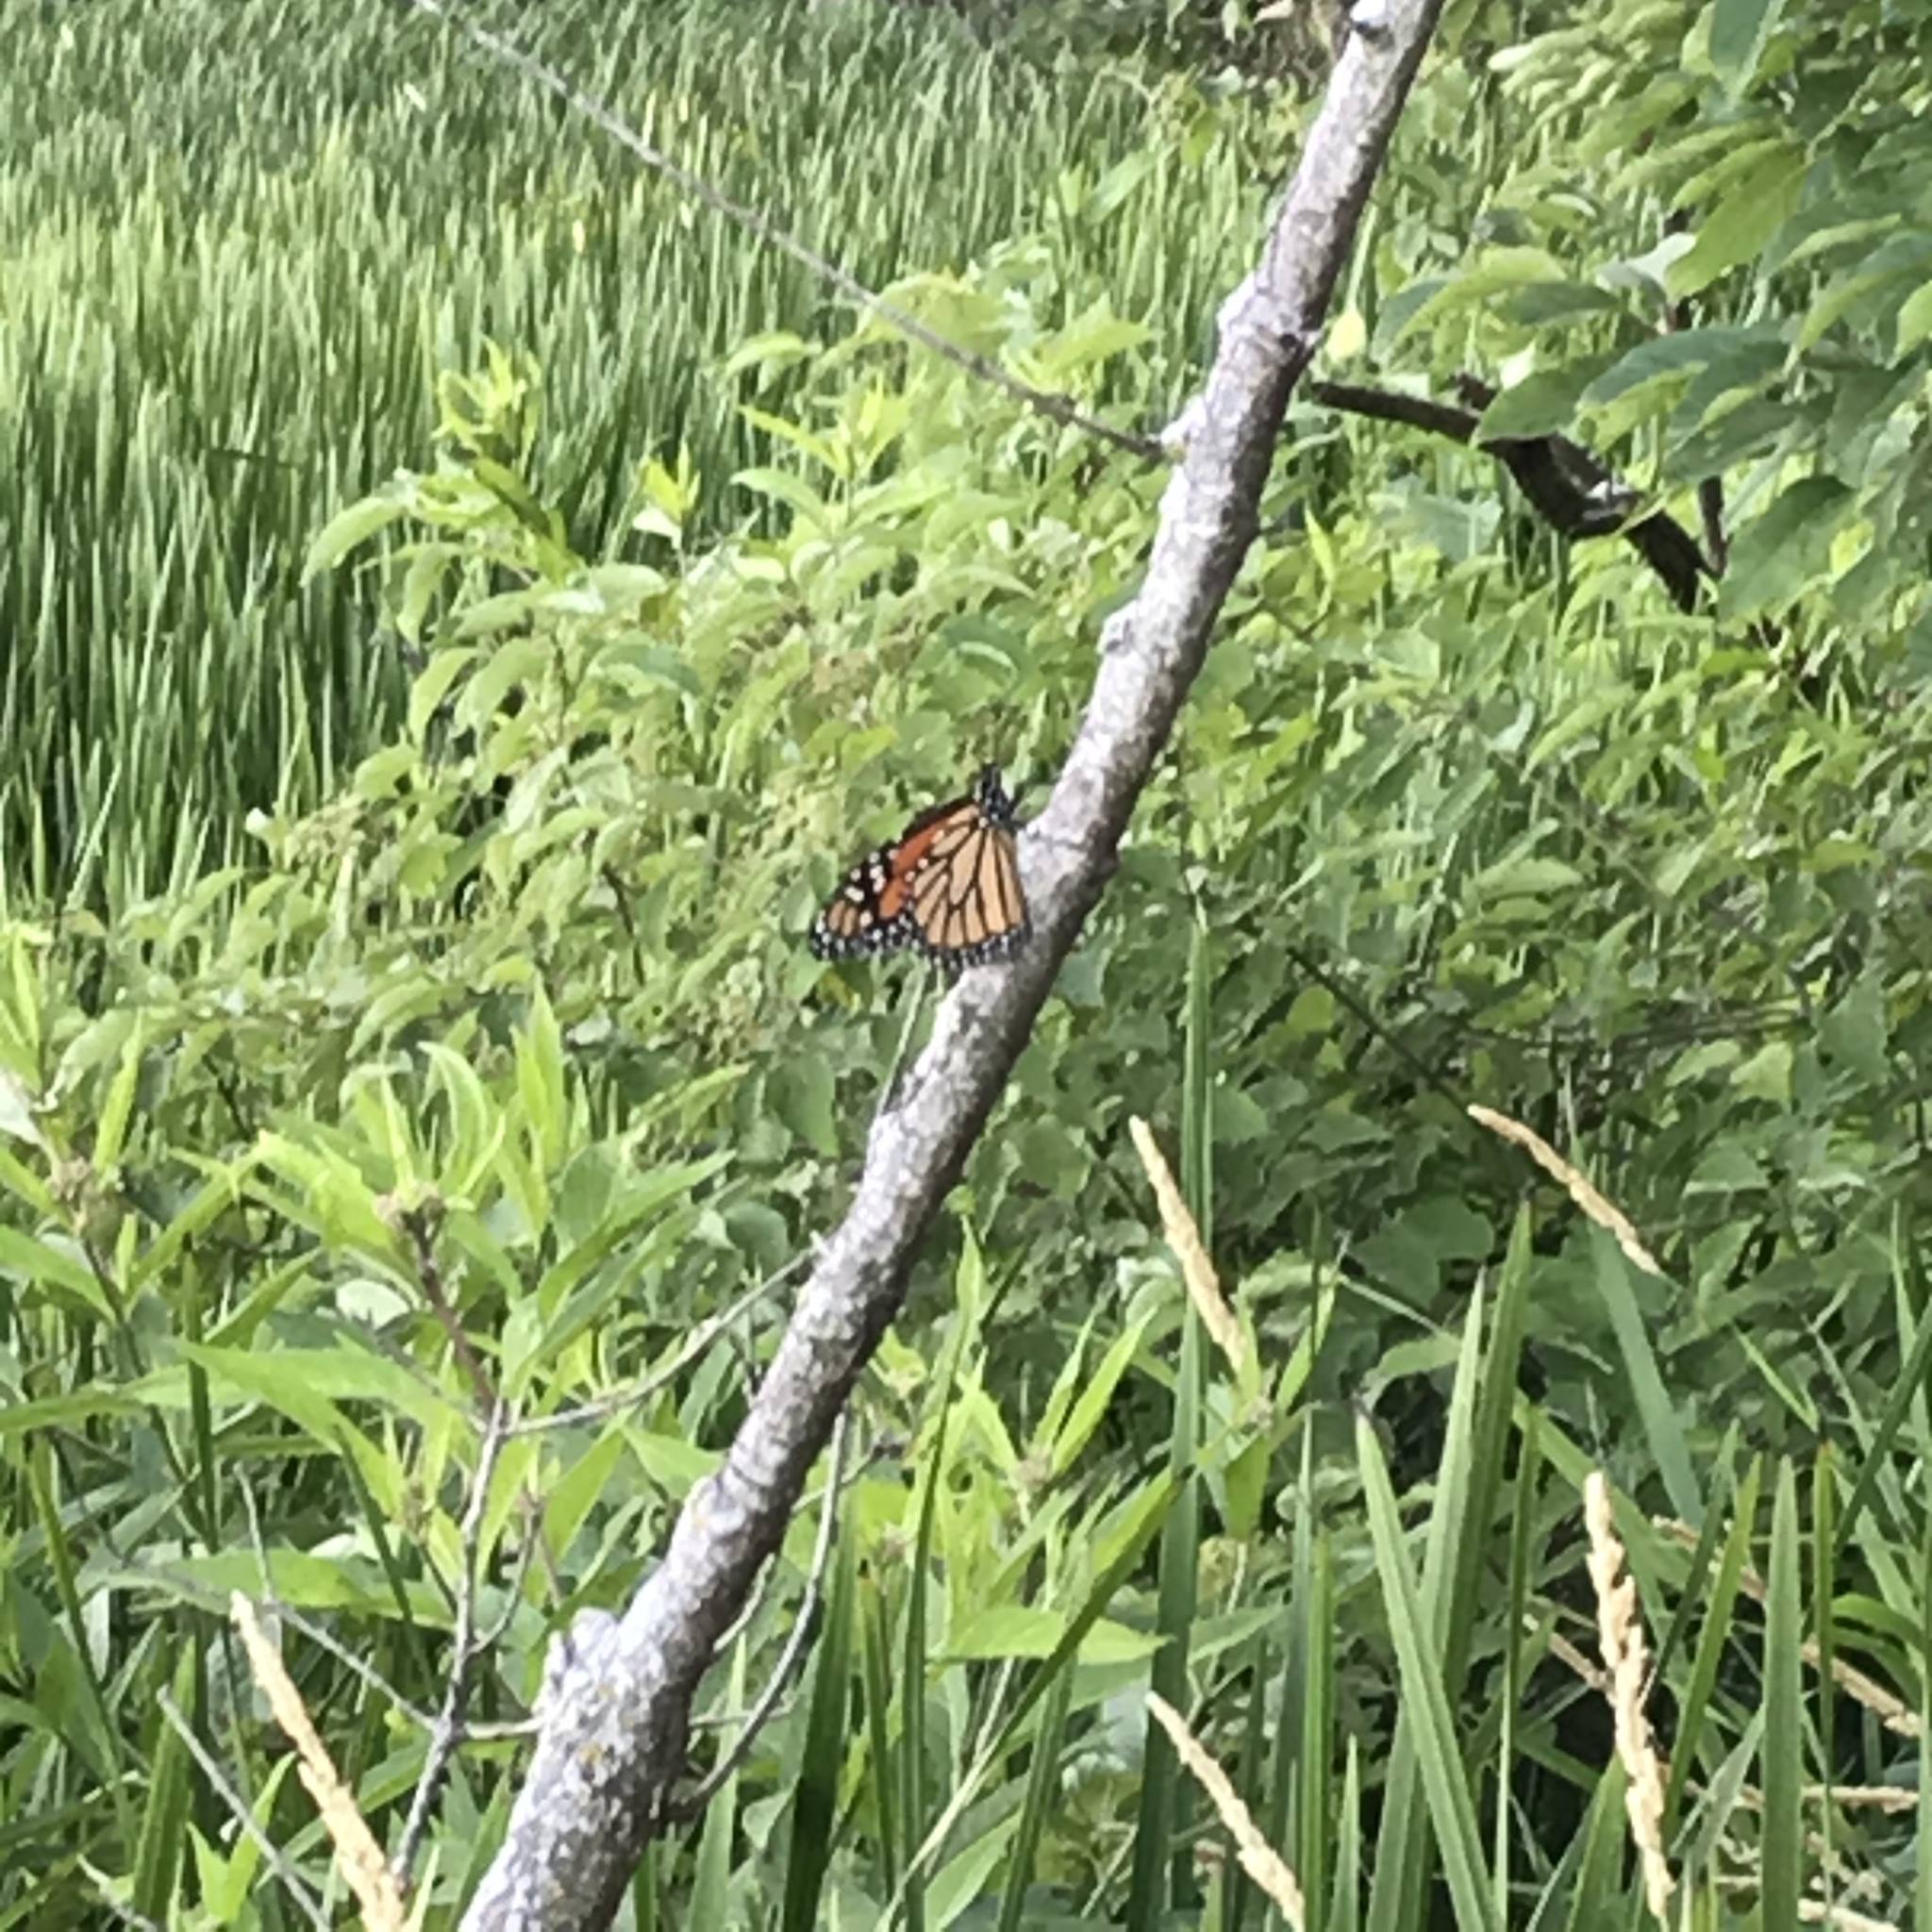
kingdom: Animalia
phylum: Arthropoda
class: Insecta
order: Lepidoptera
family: Nymphalidae
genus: Danaus
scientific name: Danaus plexippus
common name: Monarch
